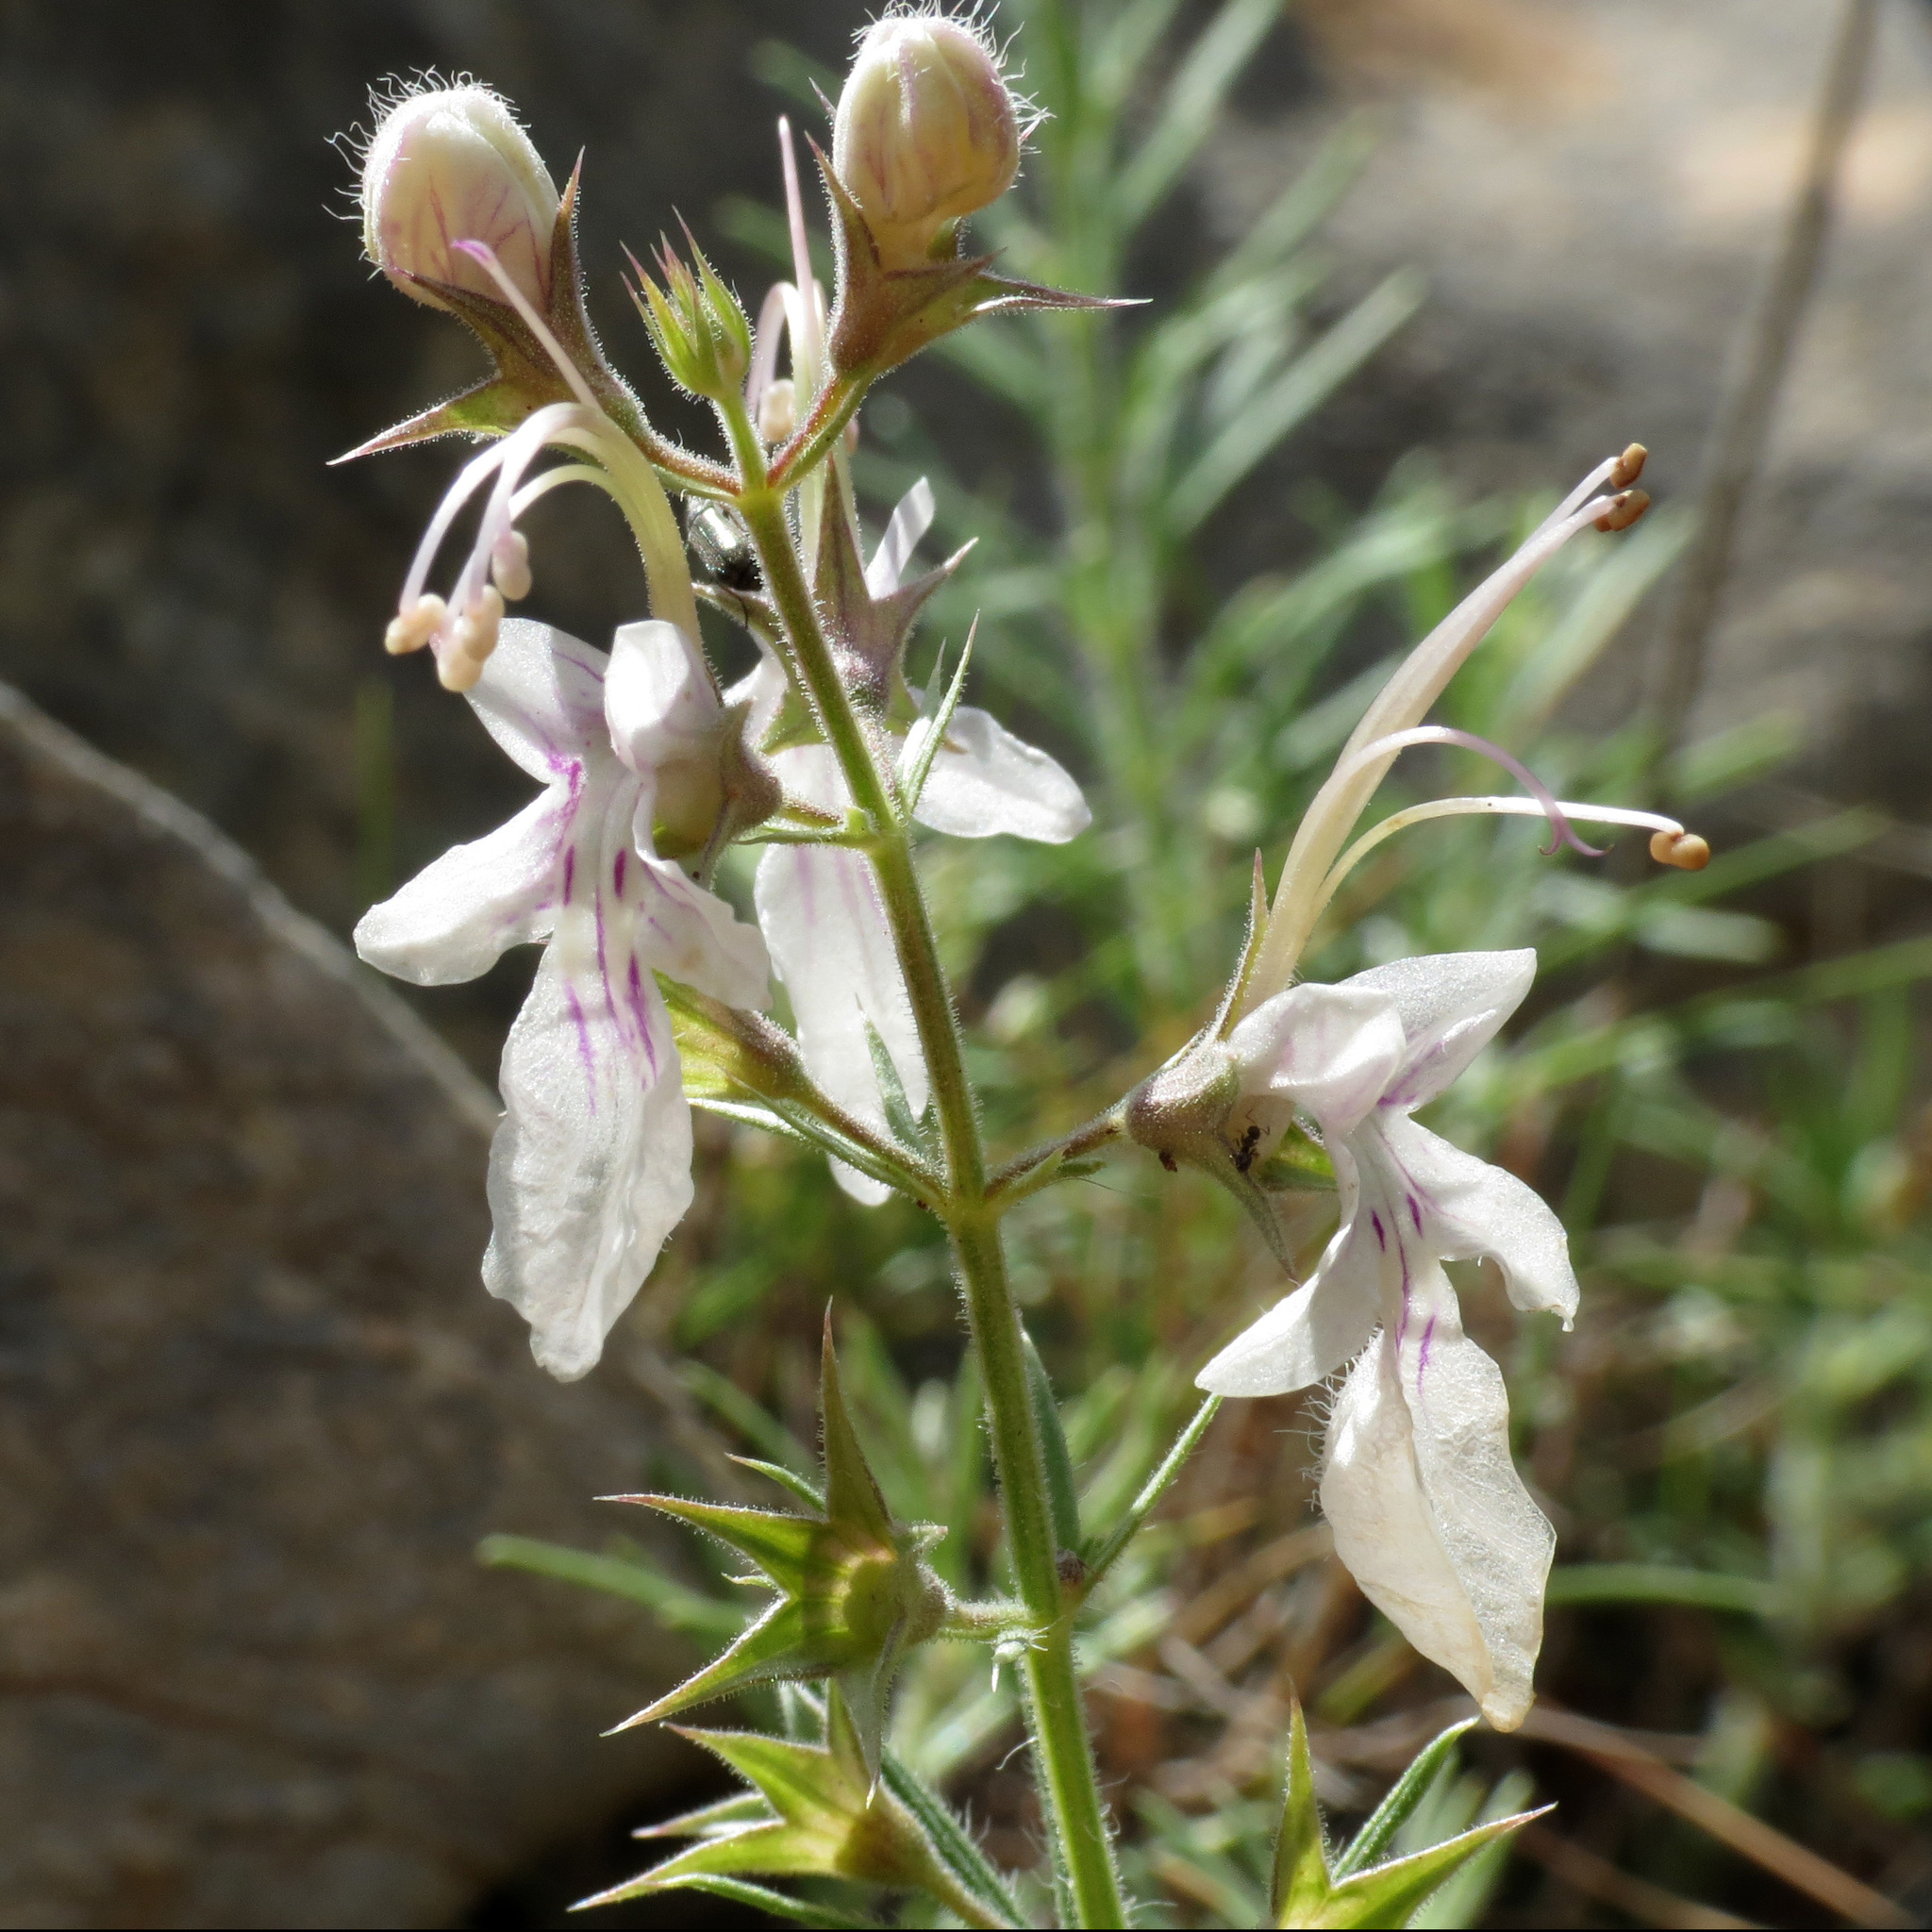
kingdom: Plantae
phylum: Tracheophyta
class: Magnoliopsida
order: Lamiales
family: Lamiaceae
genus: Teucrium
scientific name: Teucrium pseudochamaepitys
